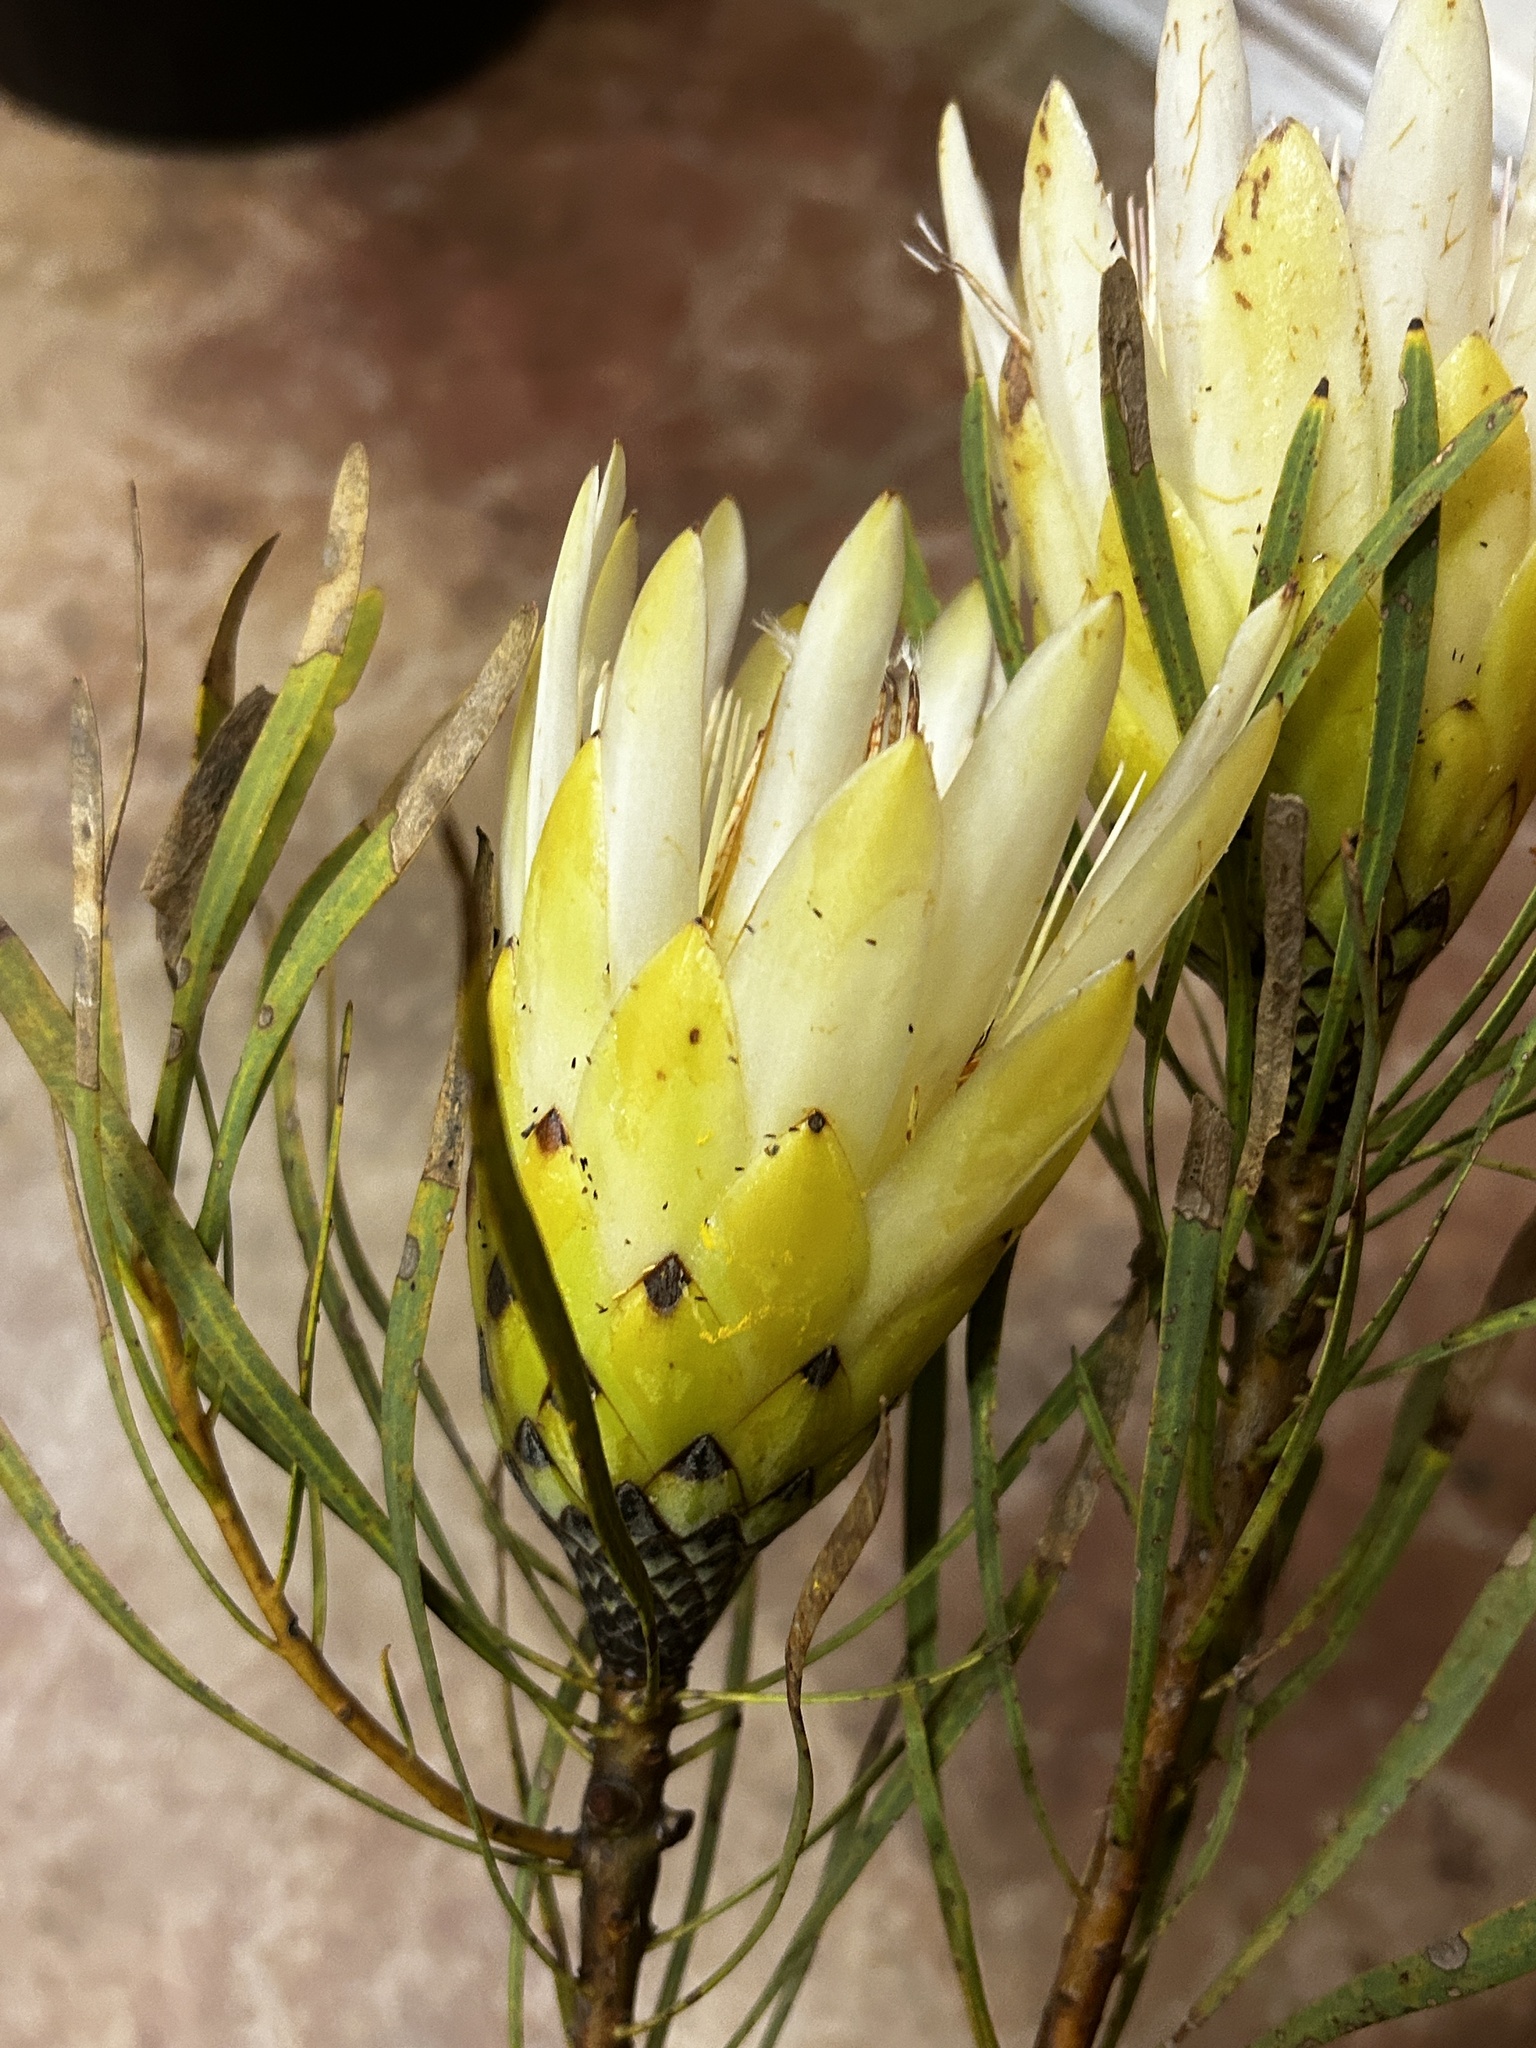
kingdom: Plantae
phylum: Tracheophyta
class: Magnoliopsida
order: Proteales
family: Proteaceae
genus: Protea
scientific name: Protea repens
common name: Sugarbush
